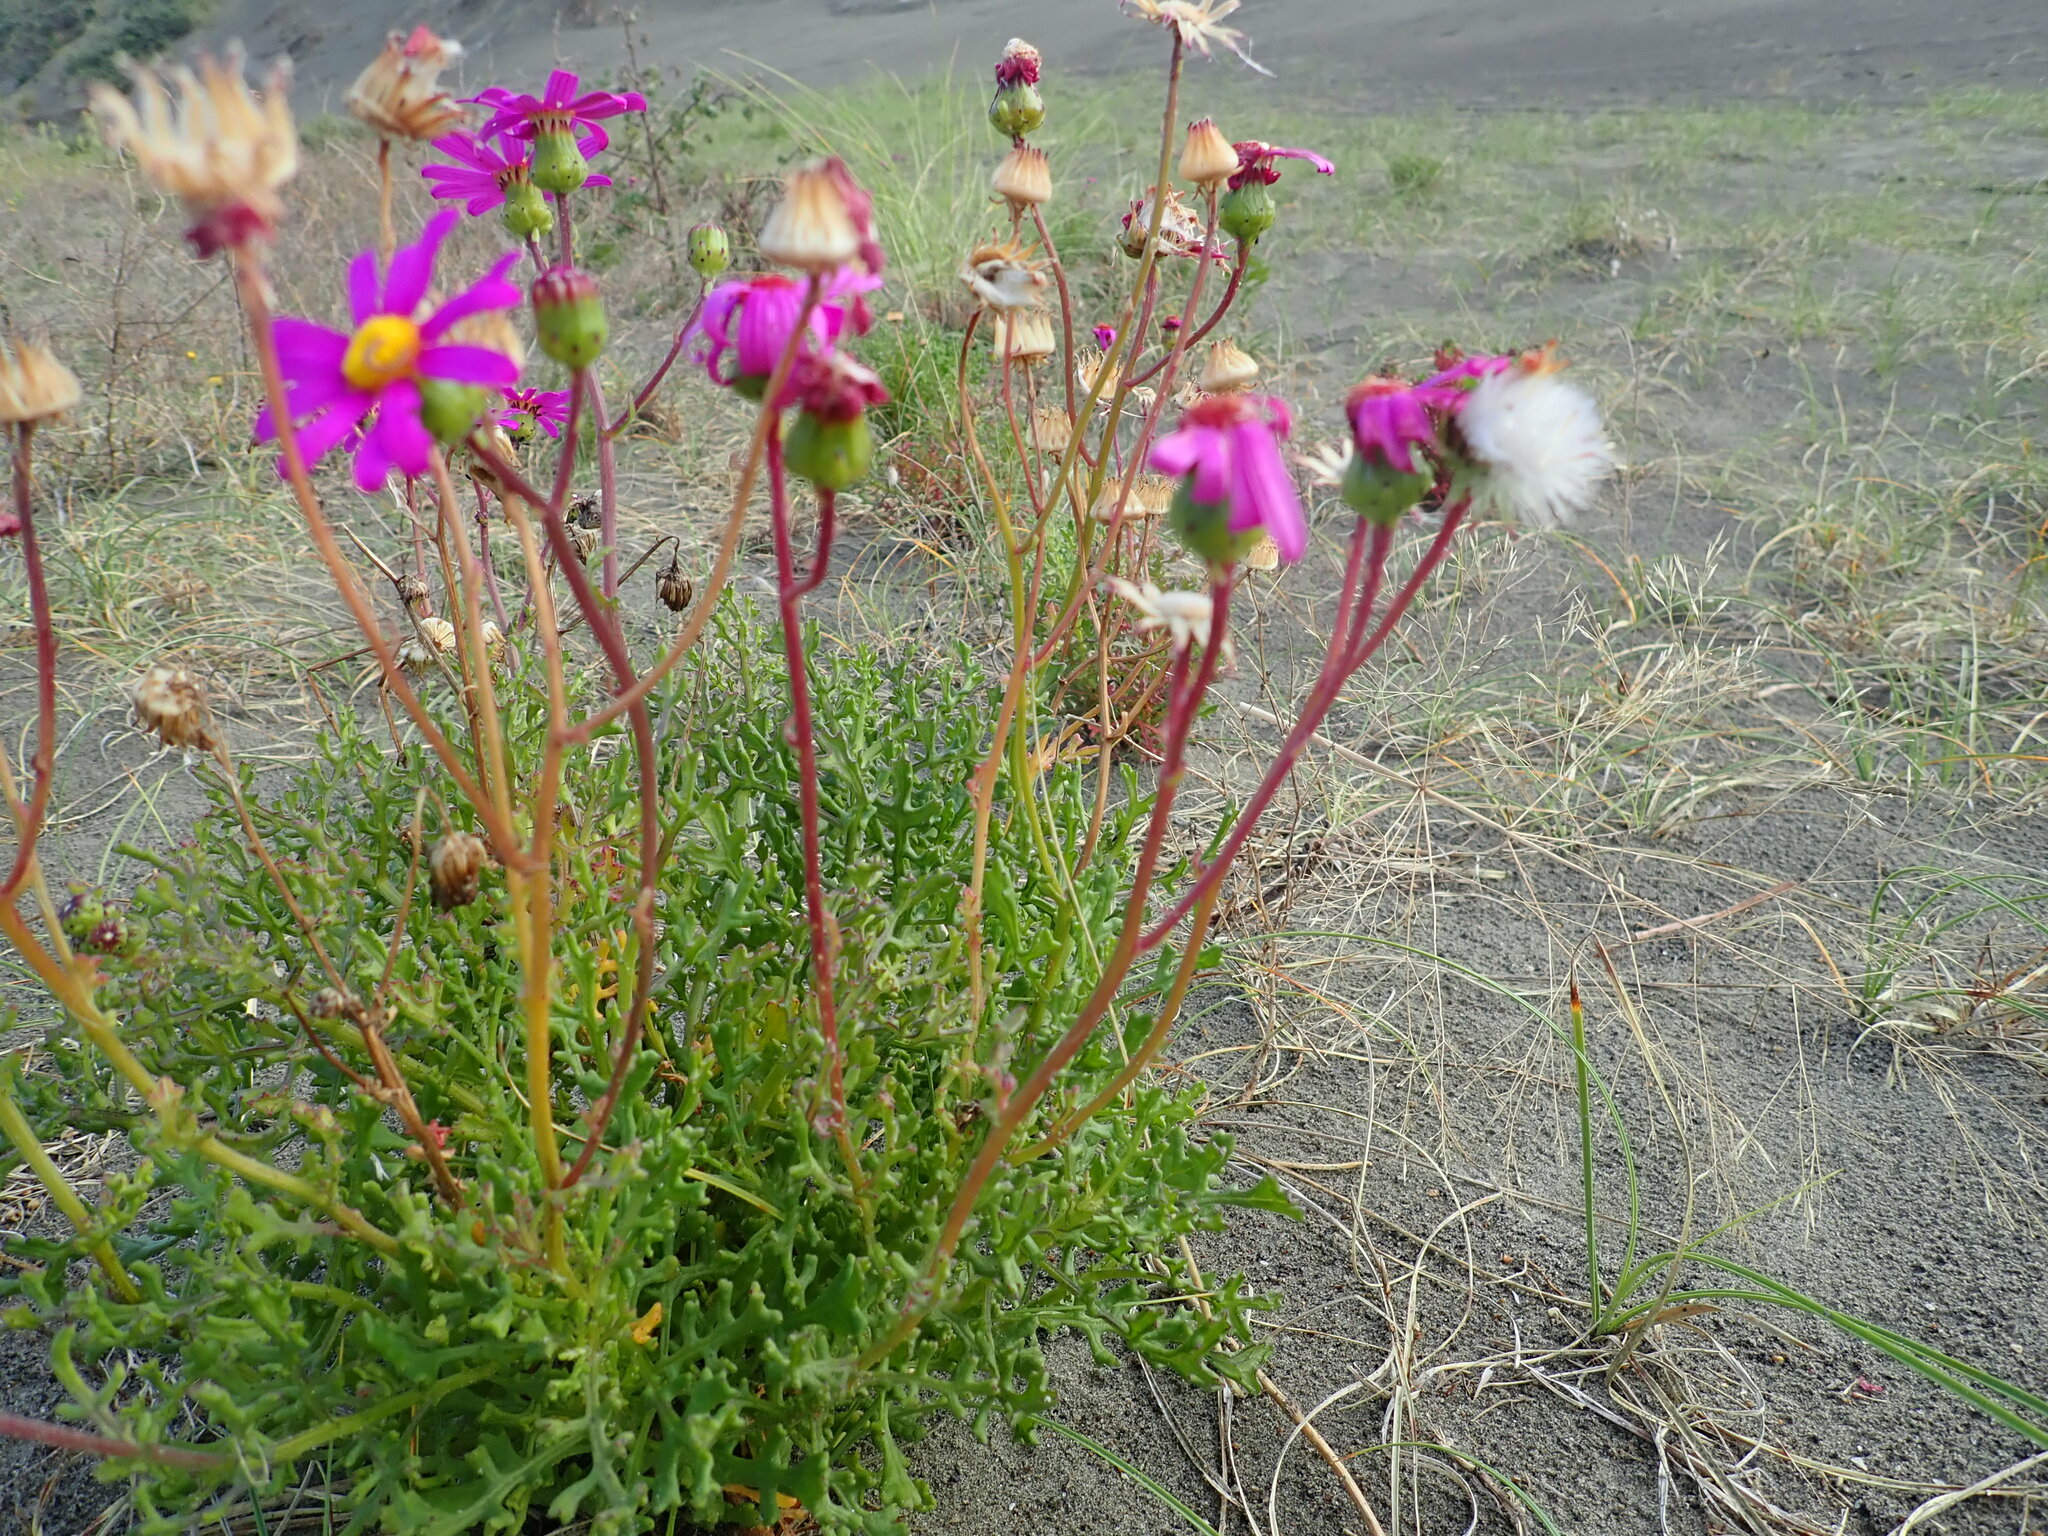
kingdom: Plantae
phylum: Tracheophyta
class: Magnoliopsida
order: Asterales
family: Asteraceae
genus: Senecio
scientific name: Senecio elegans
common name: Purple groundsel
